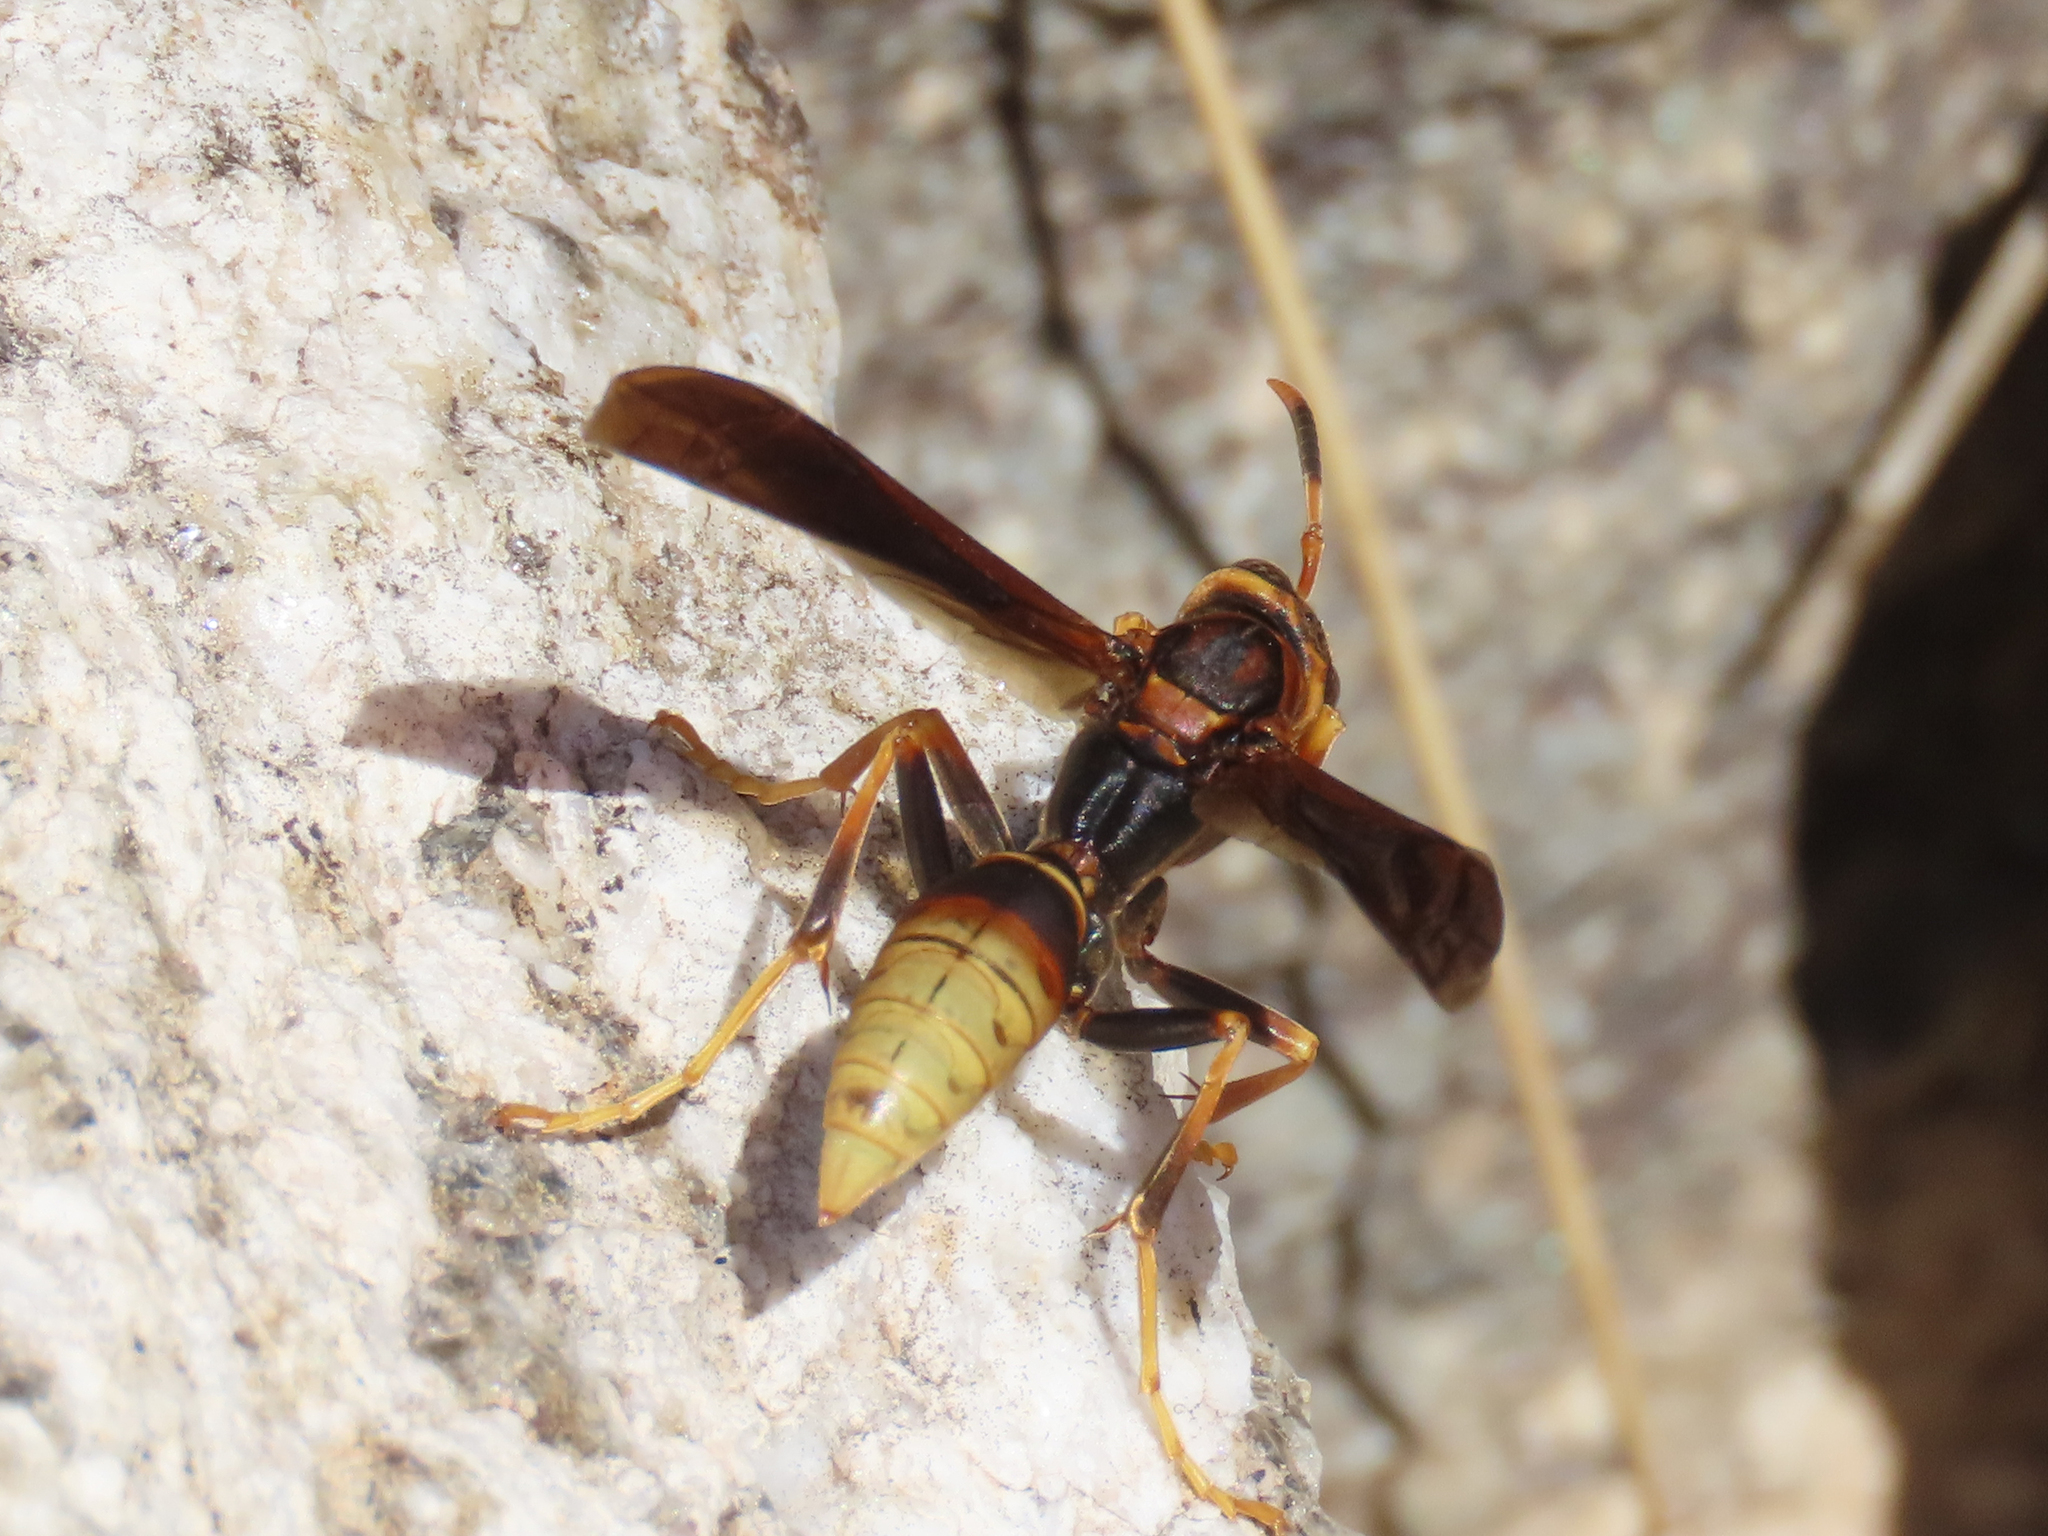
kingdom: Animalia
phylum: Arthropoda
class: Insecta
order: Hymenoptera
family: Eumenidae
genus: Polistes
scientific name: Polistes comanchus
